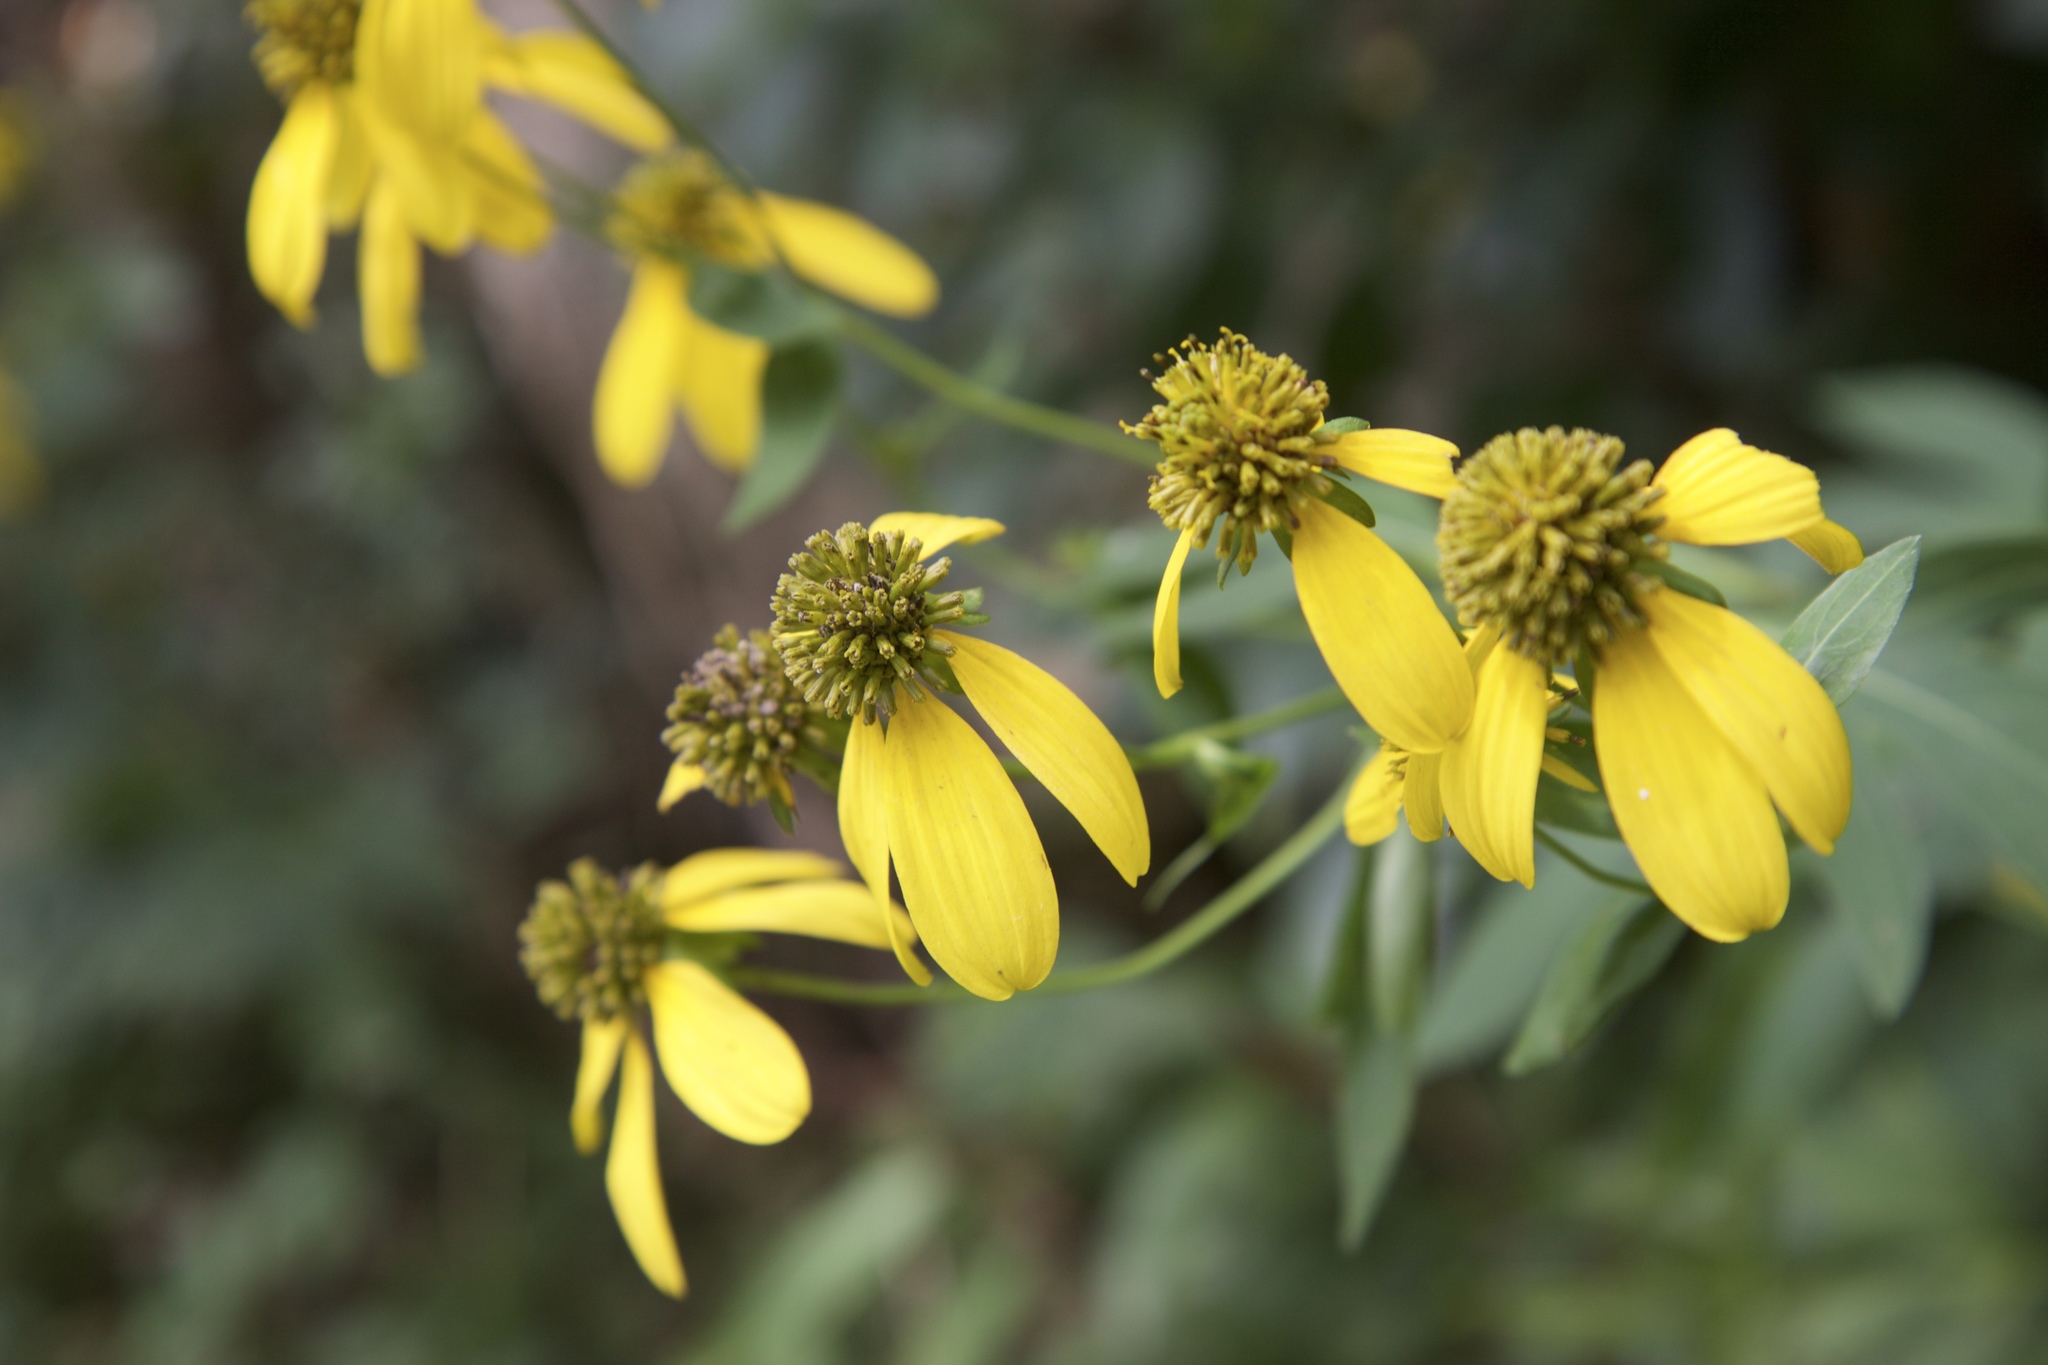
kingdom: Plantae
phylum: Tracheophyta
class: Magnoliopsida
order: Asterales
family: Asteraceae
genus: Rudbeckia
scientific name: Rudbeckia laciniata
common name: Coneflower
